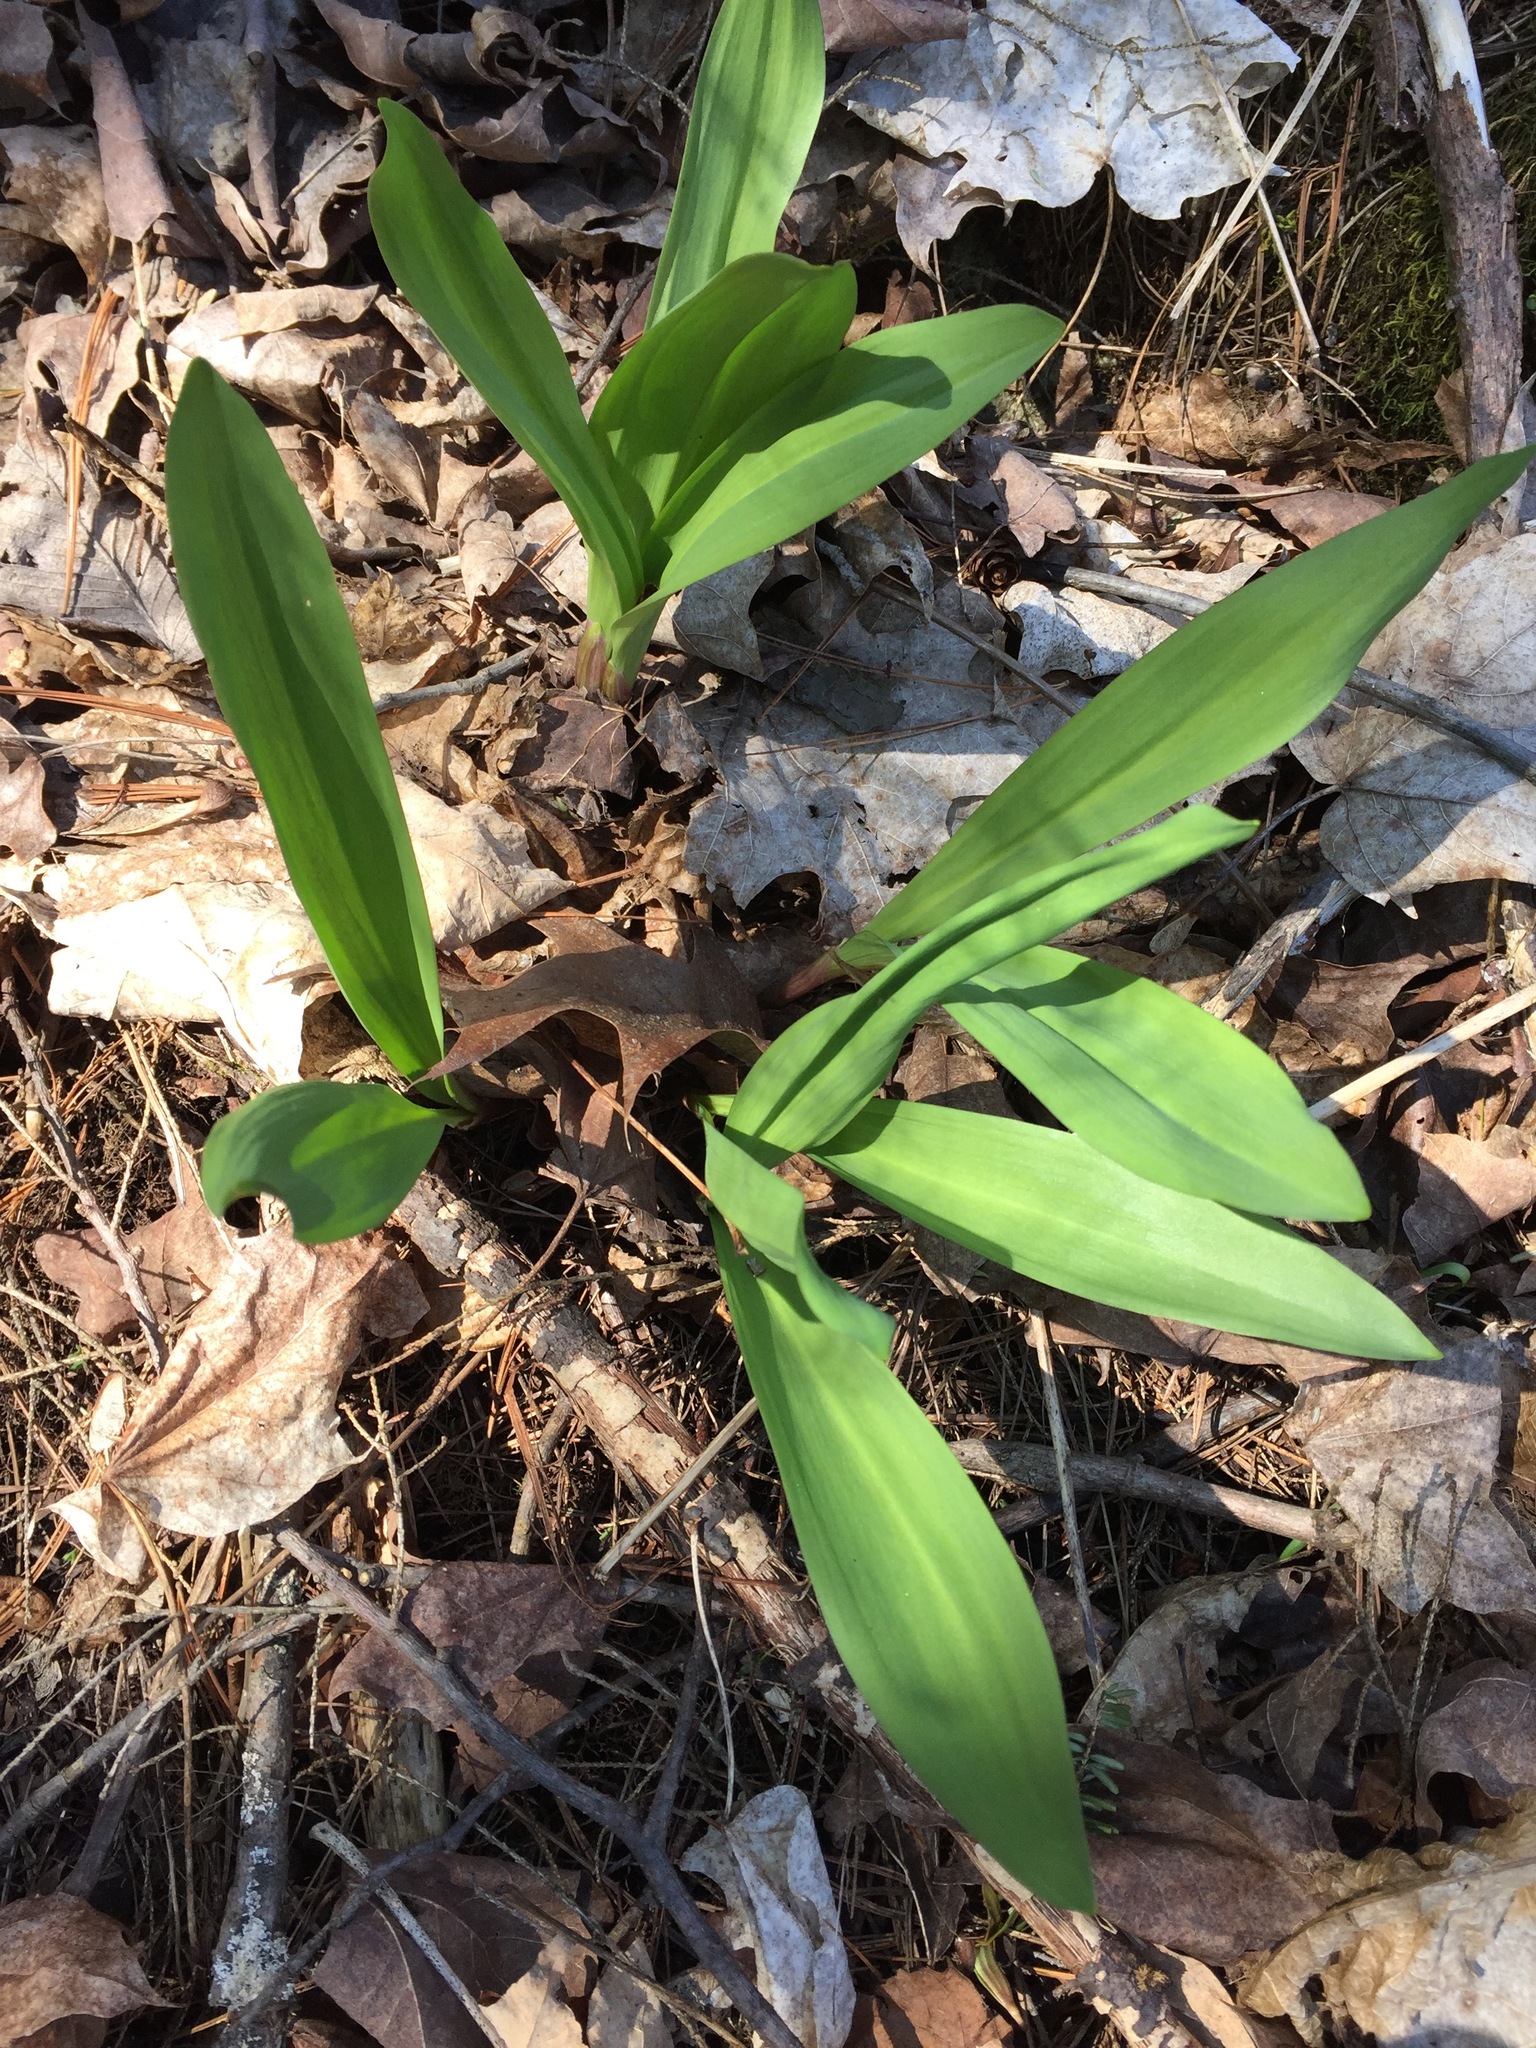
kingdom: Plantae
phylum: Tracheophyta
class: Liliopsida
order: Asparagales
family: Amaryllidaceae
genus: Allium
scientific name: Allium tricoccum
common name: Ramp
